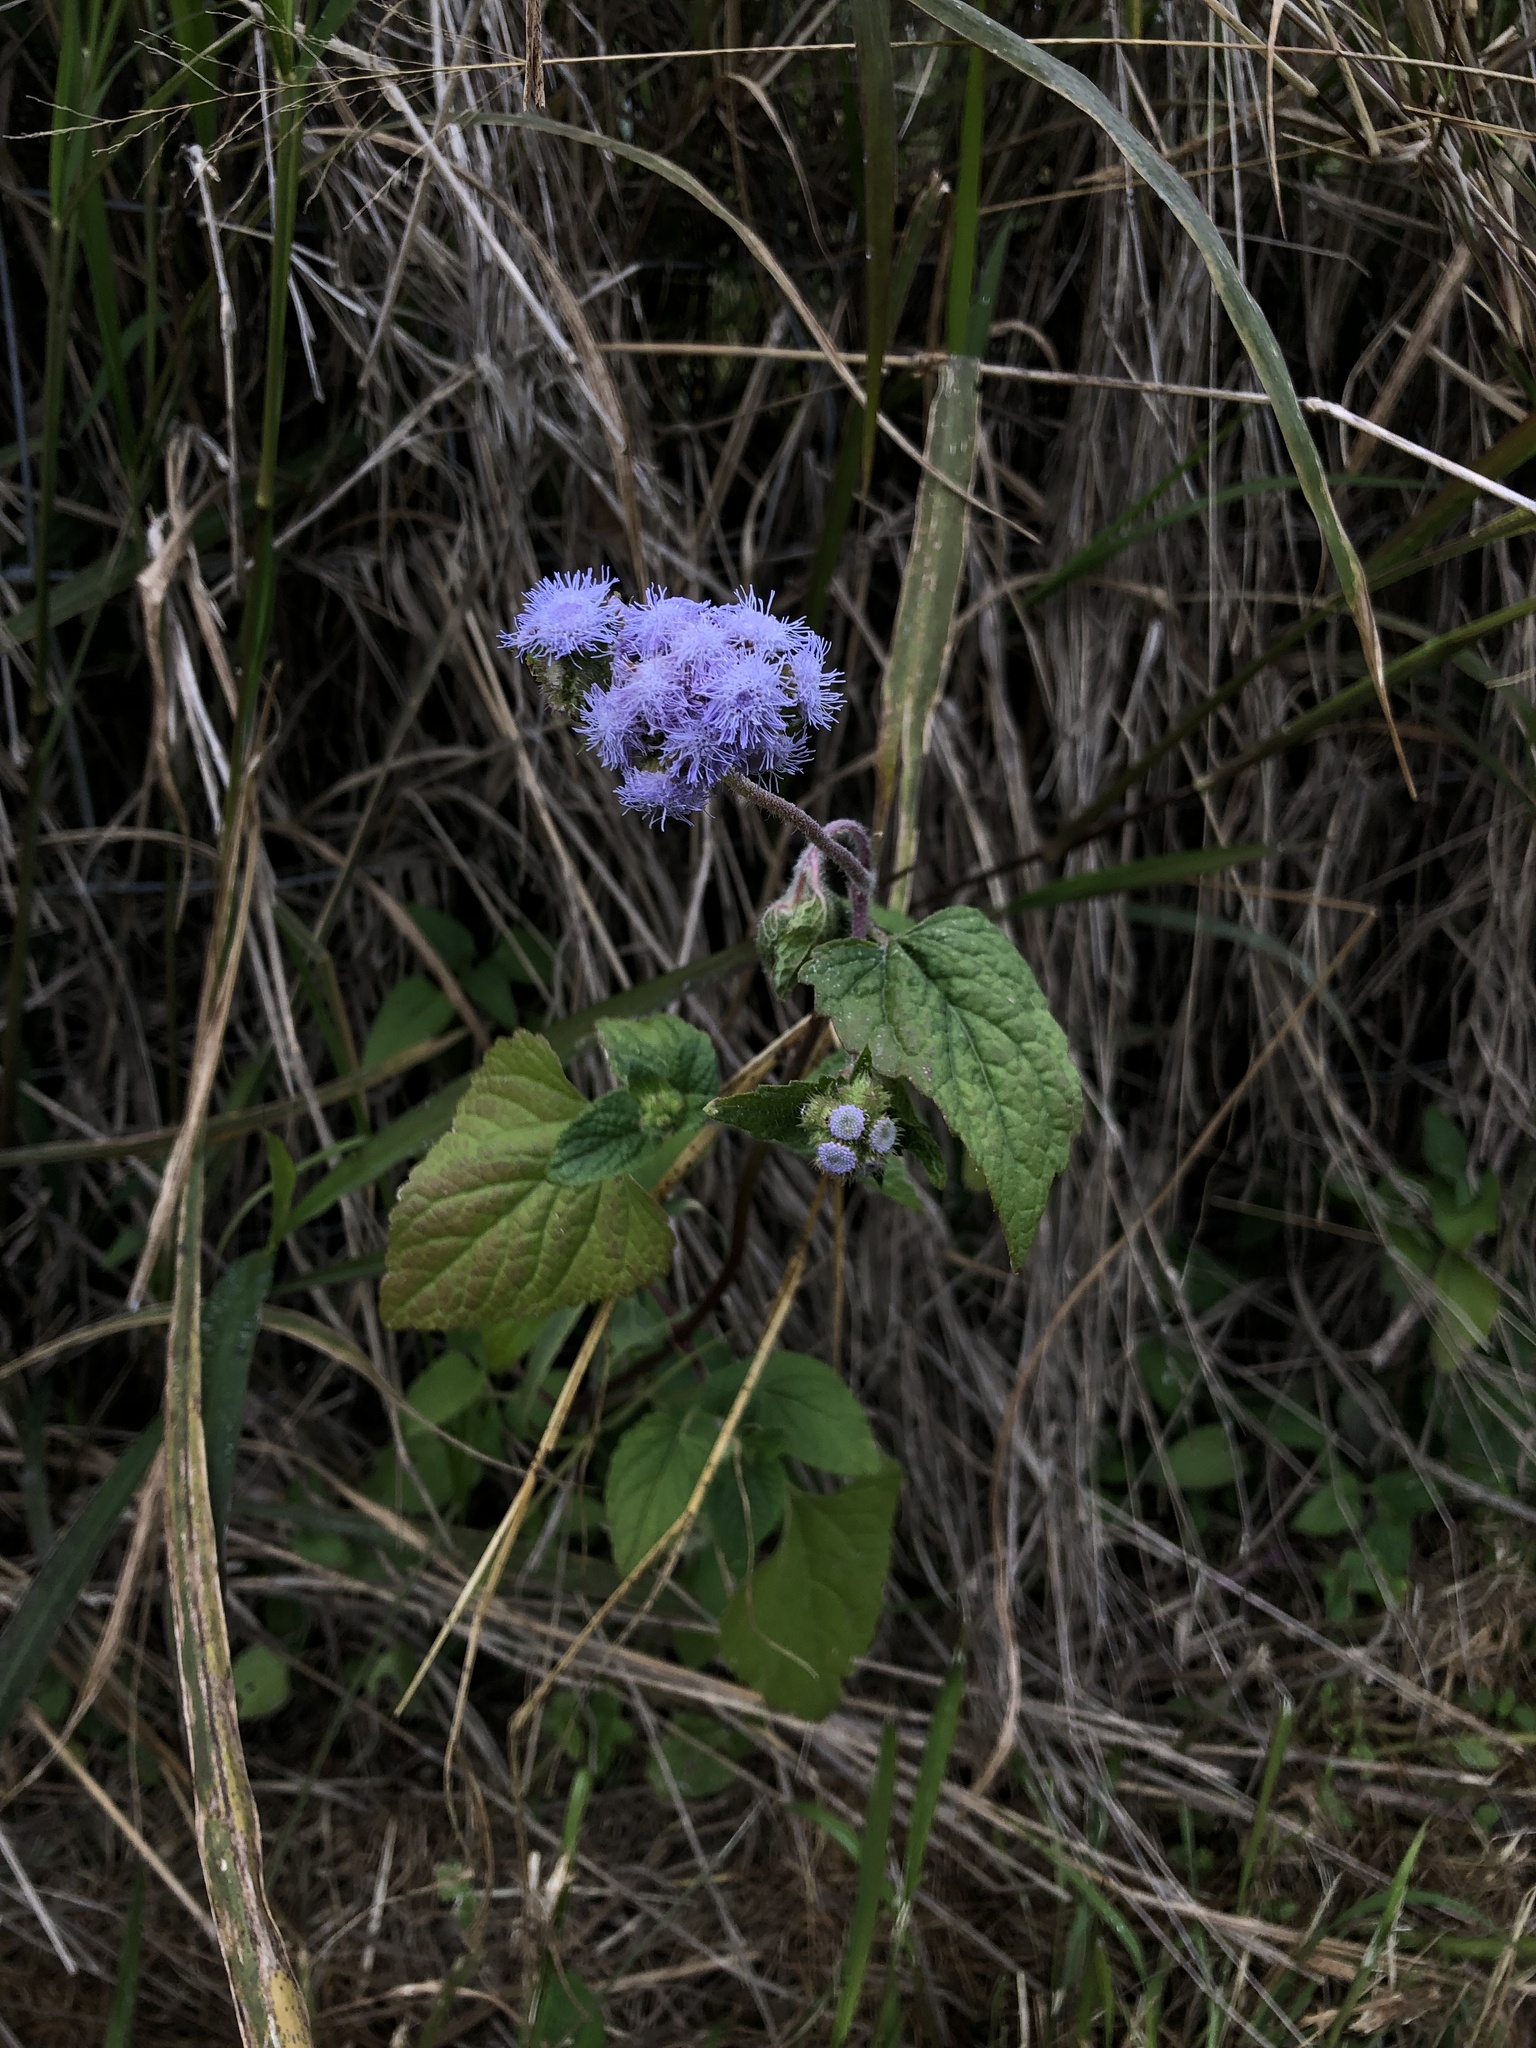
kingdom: Plantae
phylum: Tracheophyta
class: Magnoliopsida
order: Asterales
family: Asteraceae
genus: Ageratum
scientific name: Ageratum houstonianum
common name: Bluemink
